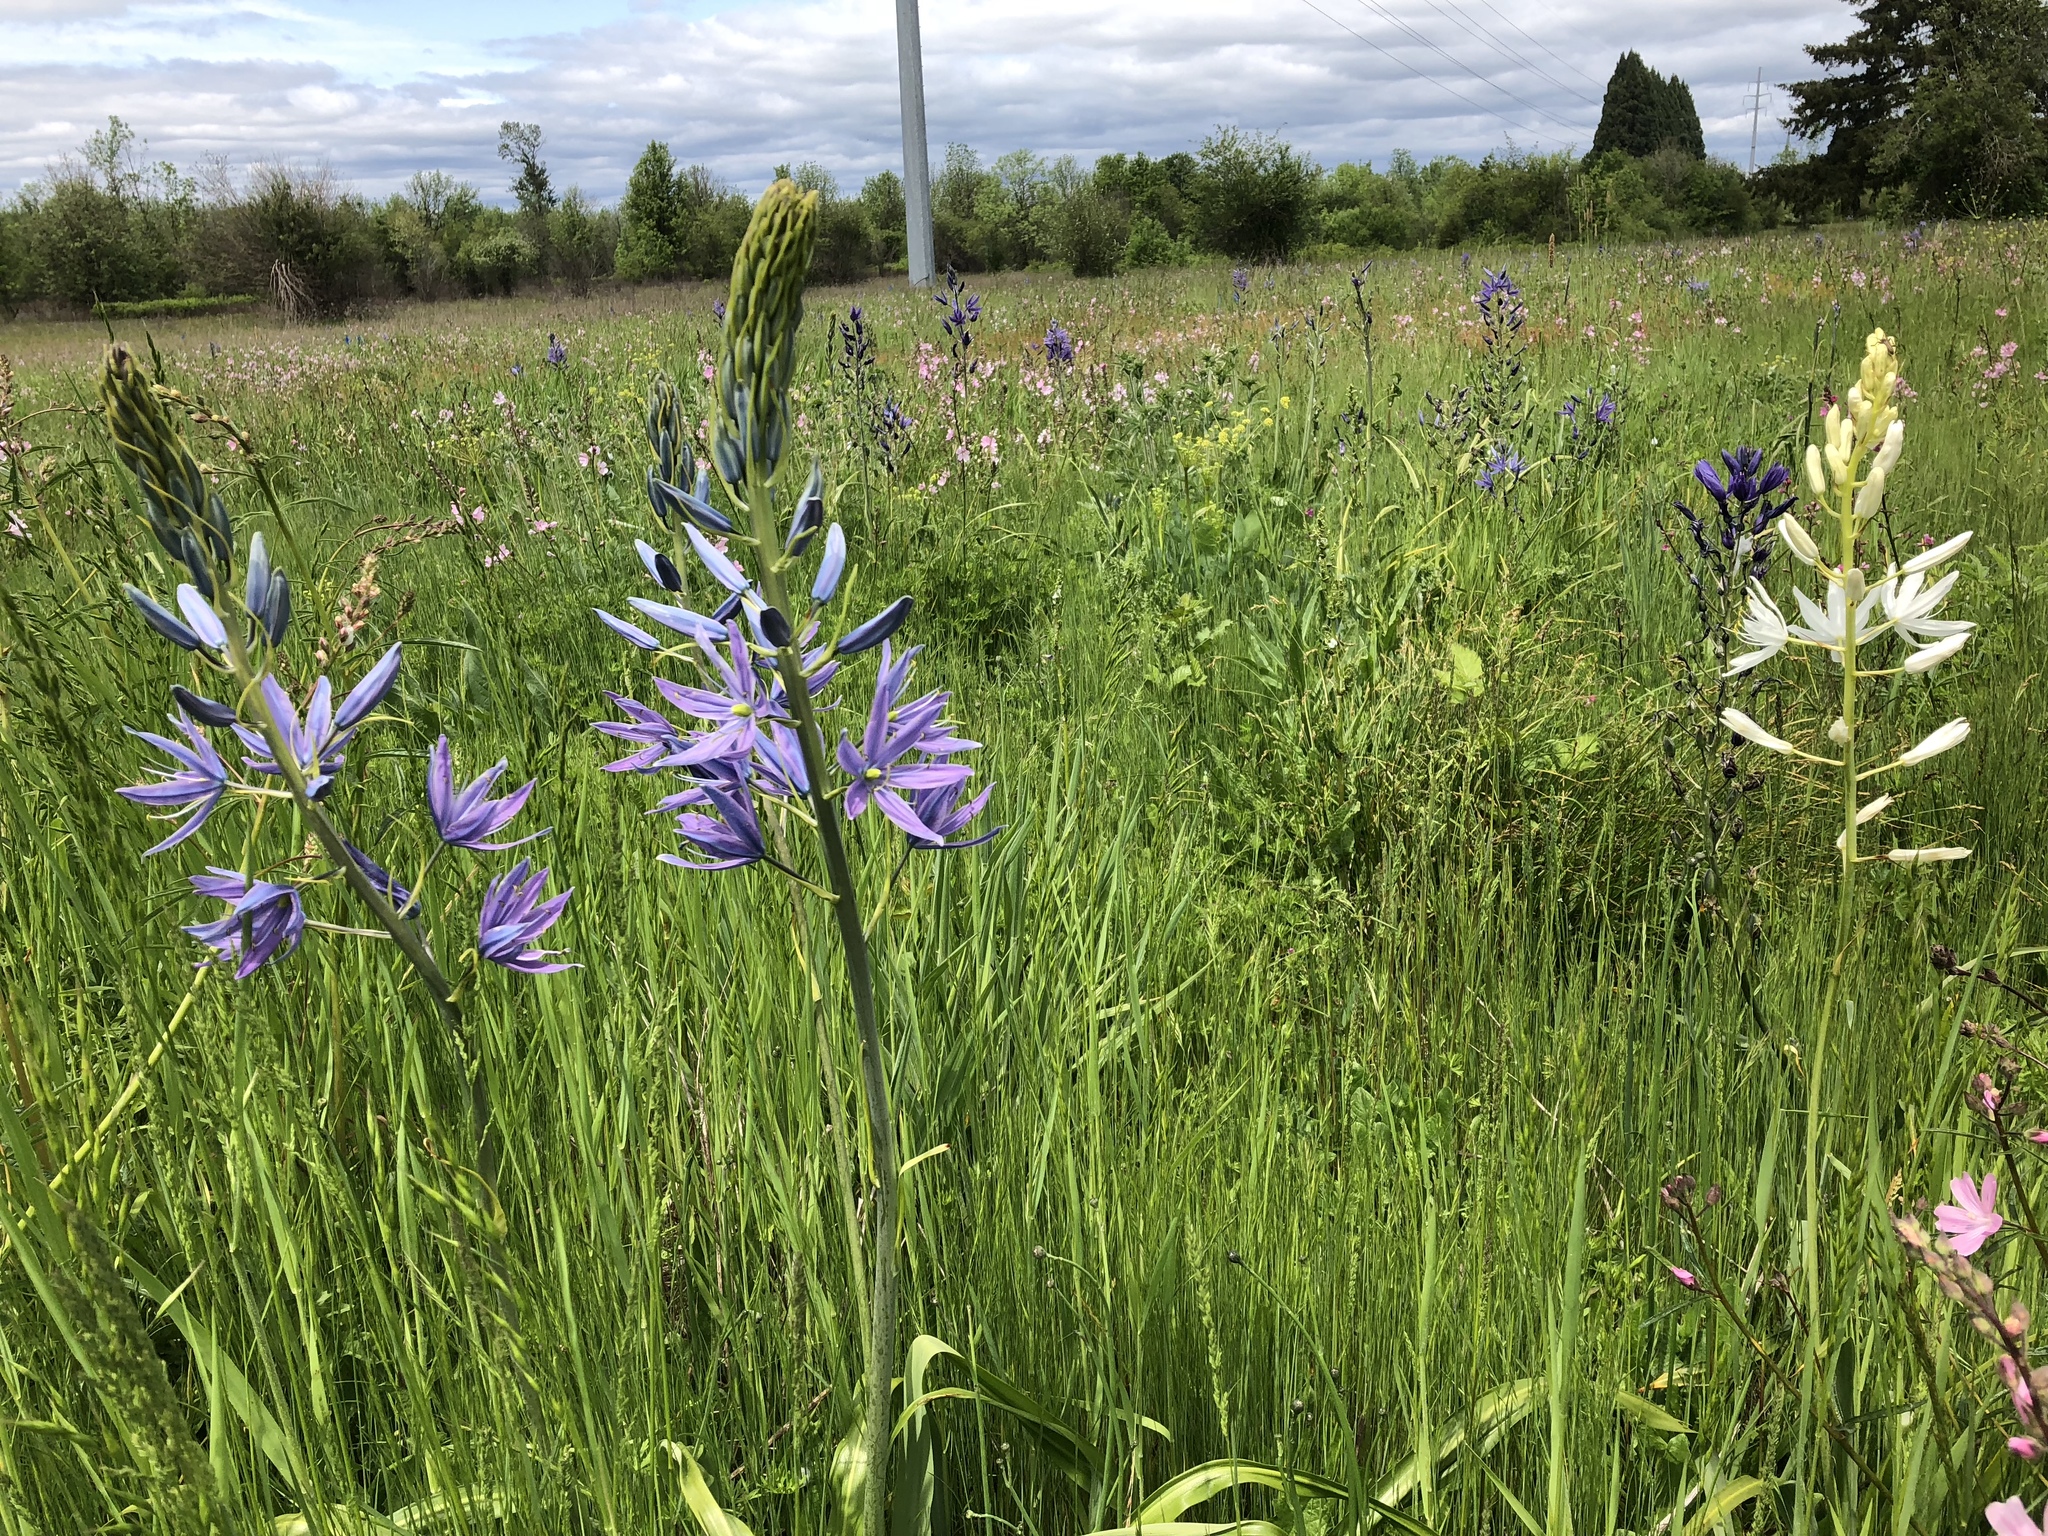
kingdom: Plantae
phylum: Tracheophyta
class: Liliopsida
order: Asparagales
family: Asparagaceae
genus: Camassia
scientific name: Camassia leichtlinii
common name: Leichtlin's camas
